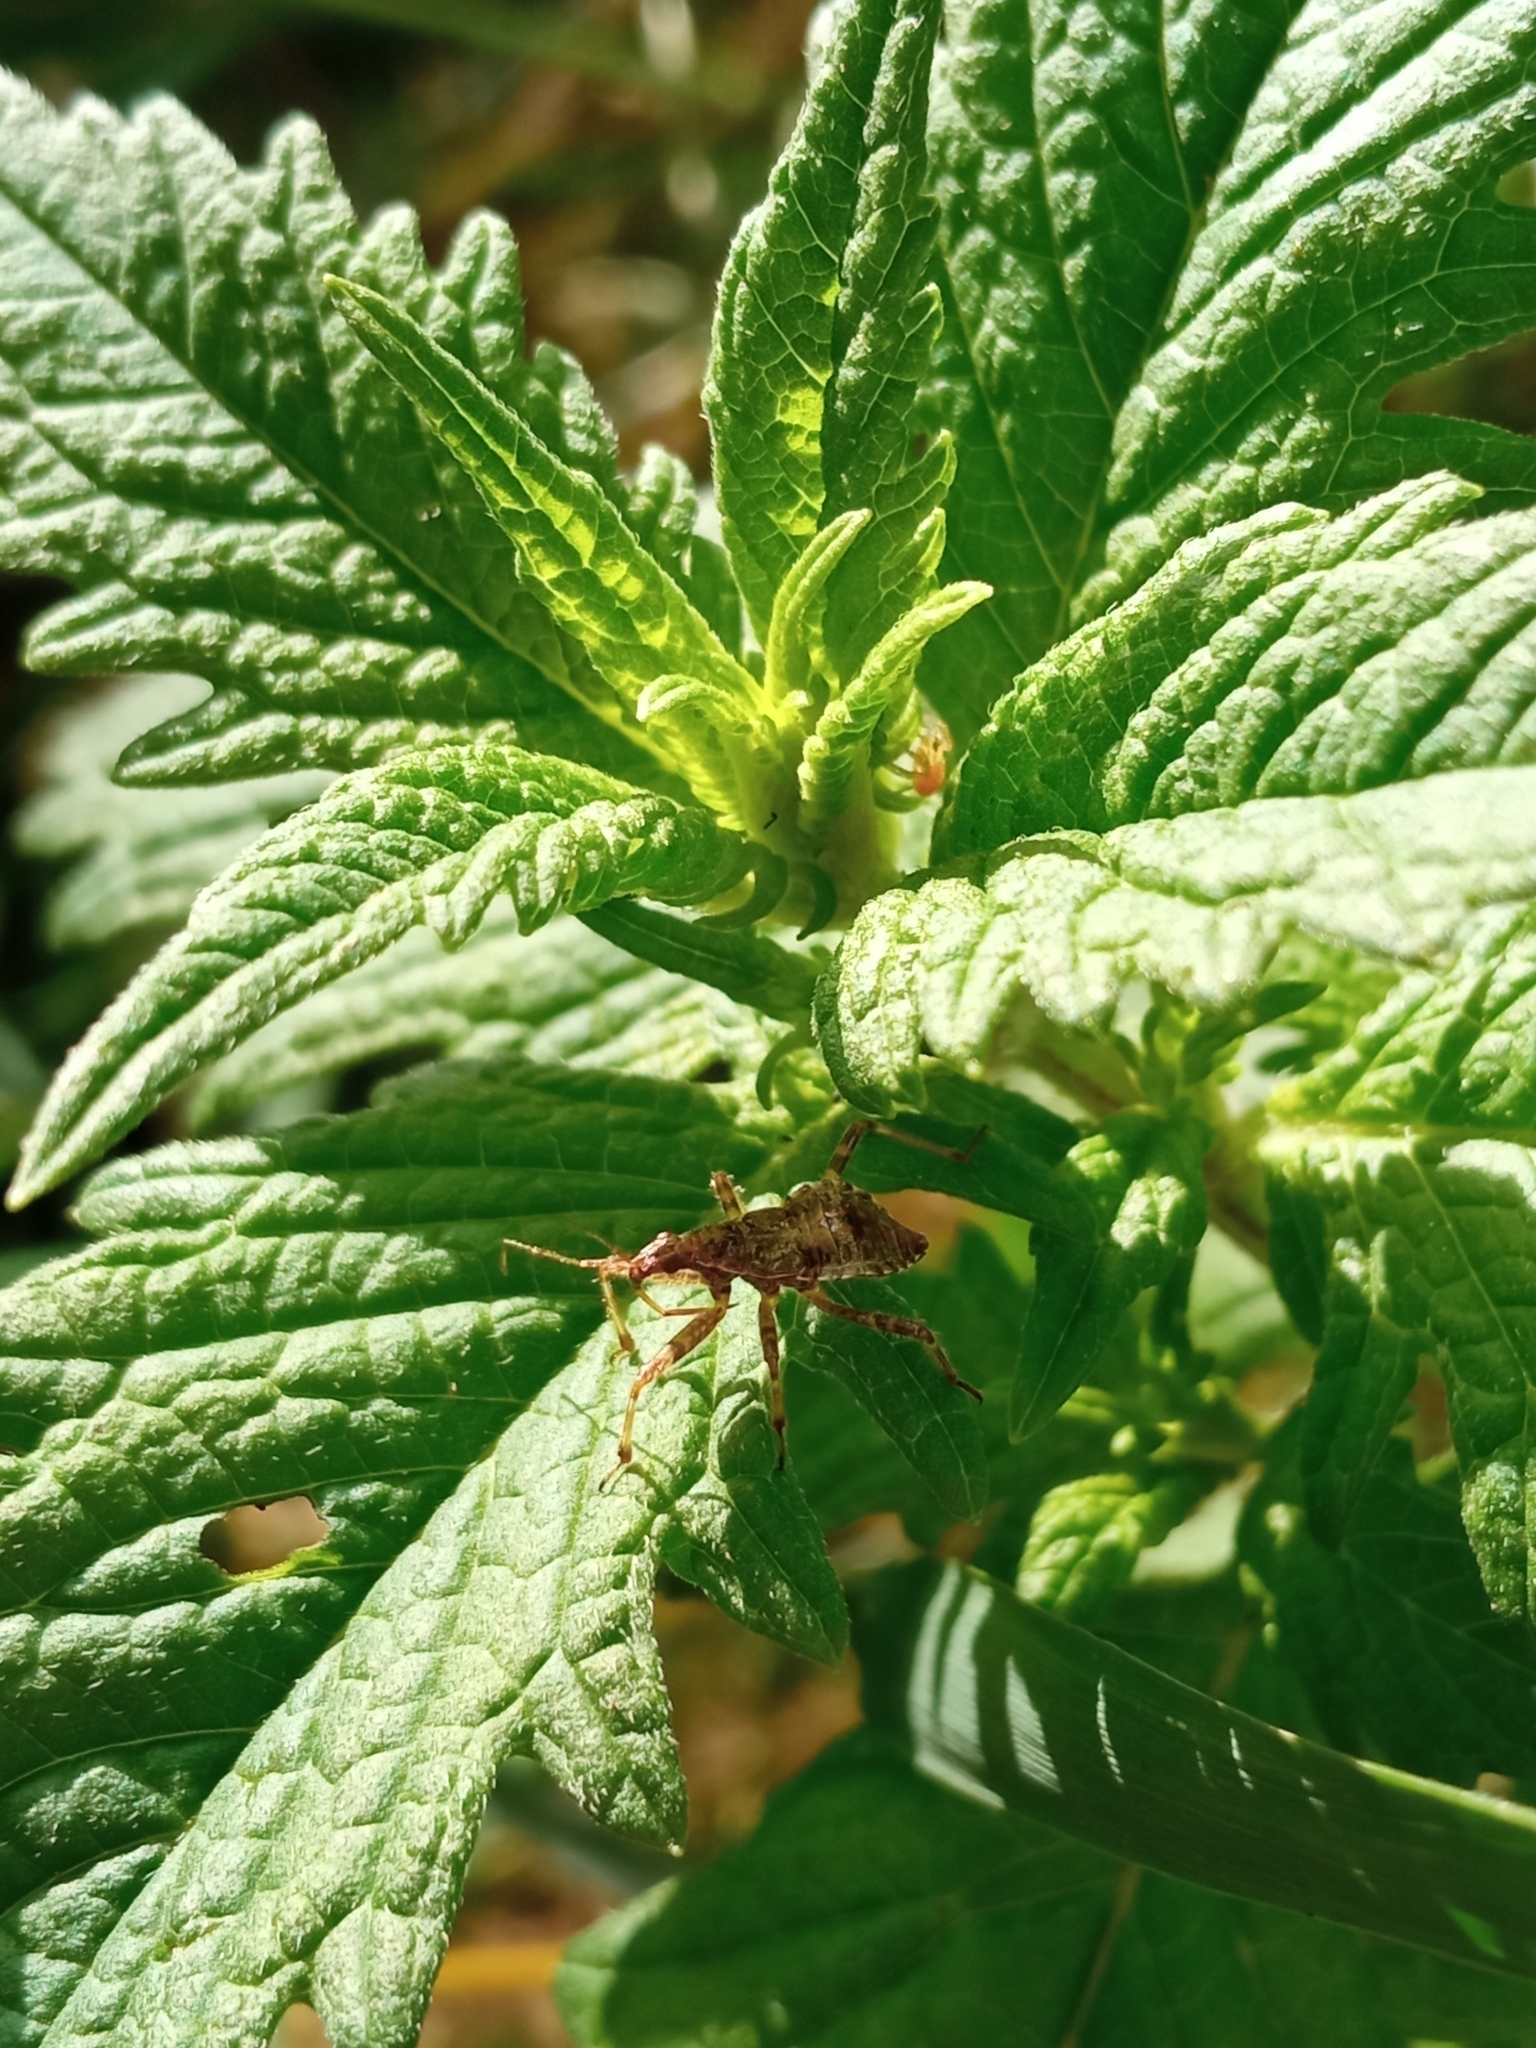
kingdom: Animalia
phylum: Arthropoda
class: Insecta
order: Hemiptera
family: Nabidae
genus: Himacerus
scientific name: Himacerus apterus
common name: Tree damsel bug
